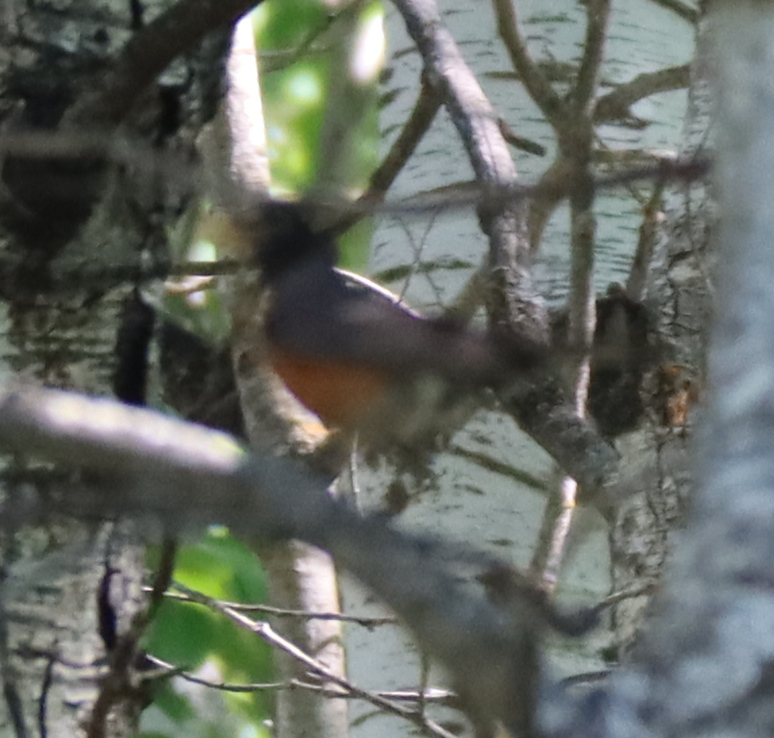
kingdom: Animalia
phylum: Chordata
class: Aves
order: Passeriformes
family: Turdidae
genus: Turdus
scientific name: Turdus migratorius
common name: American robin
